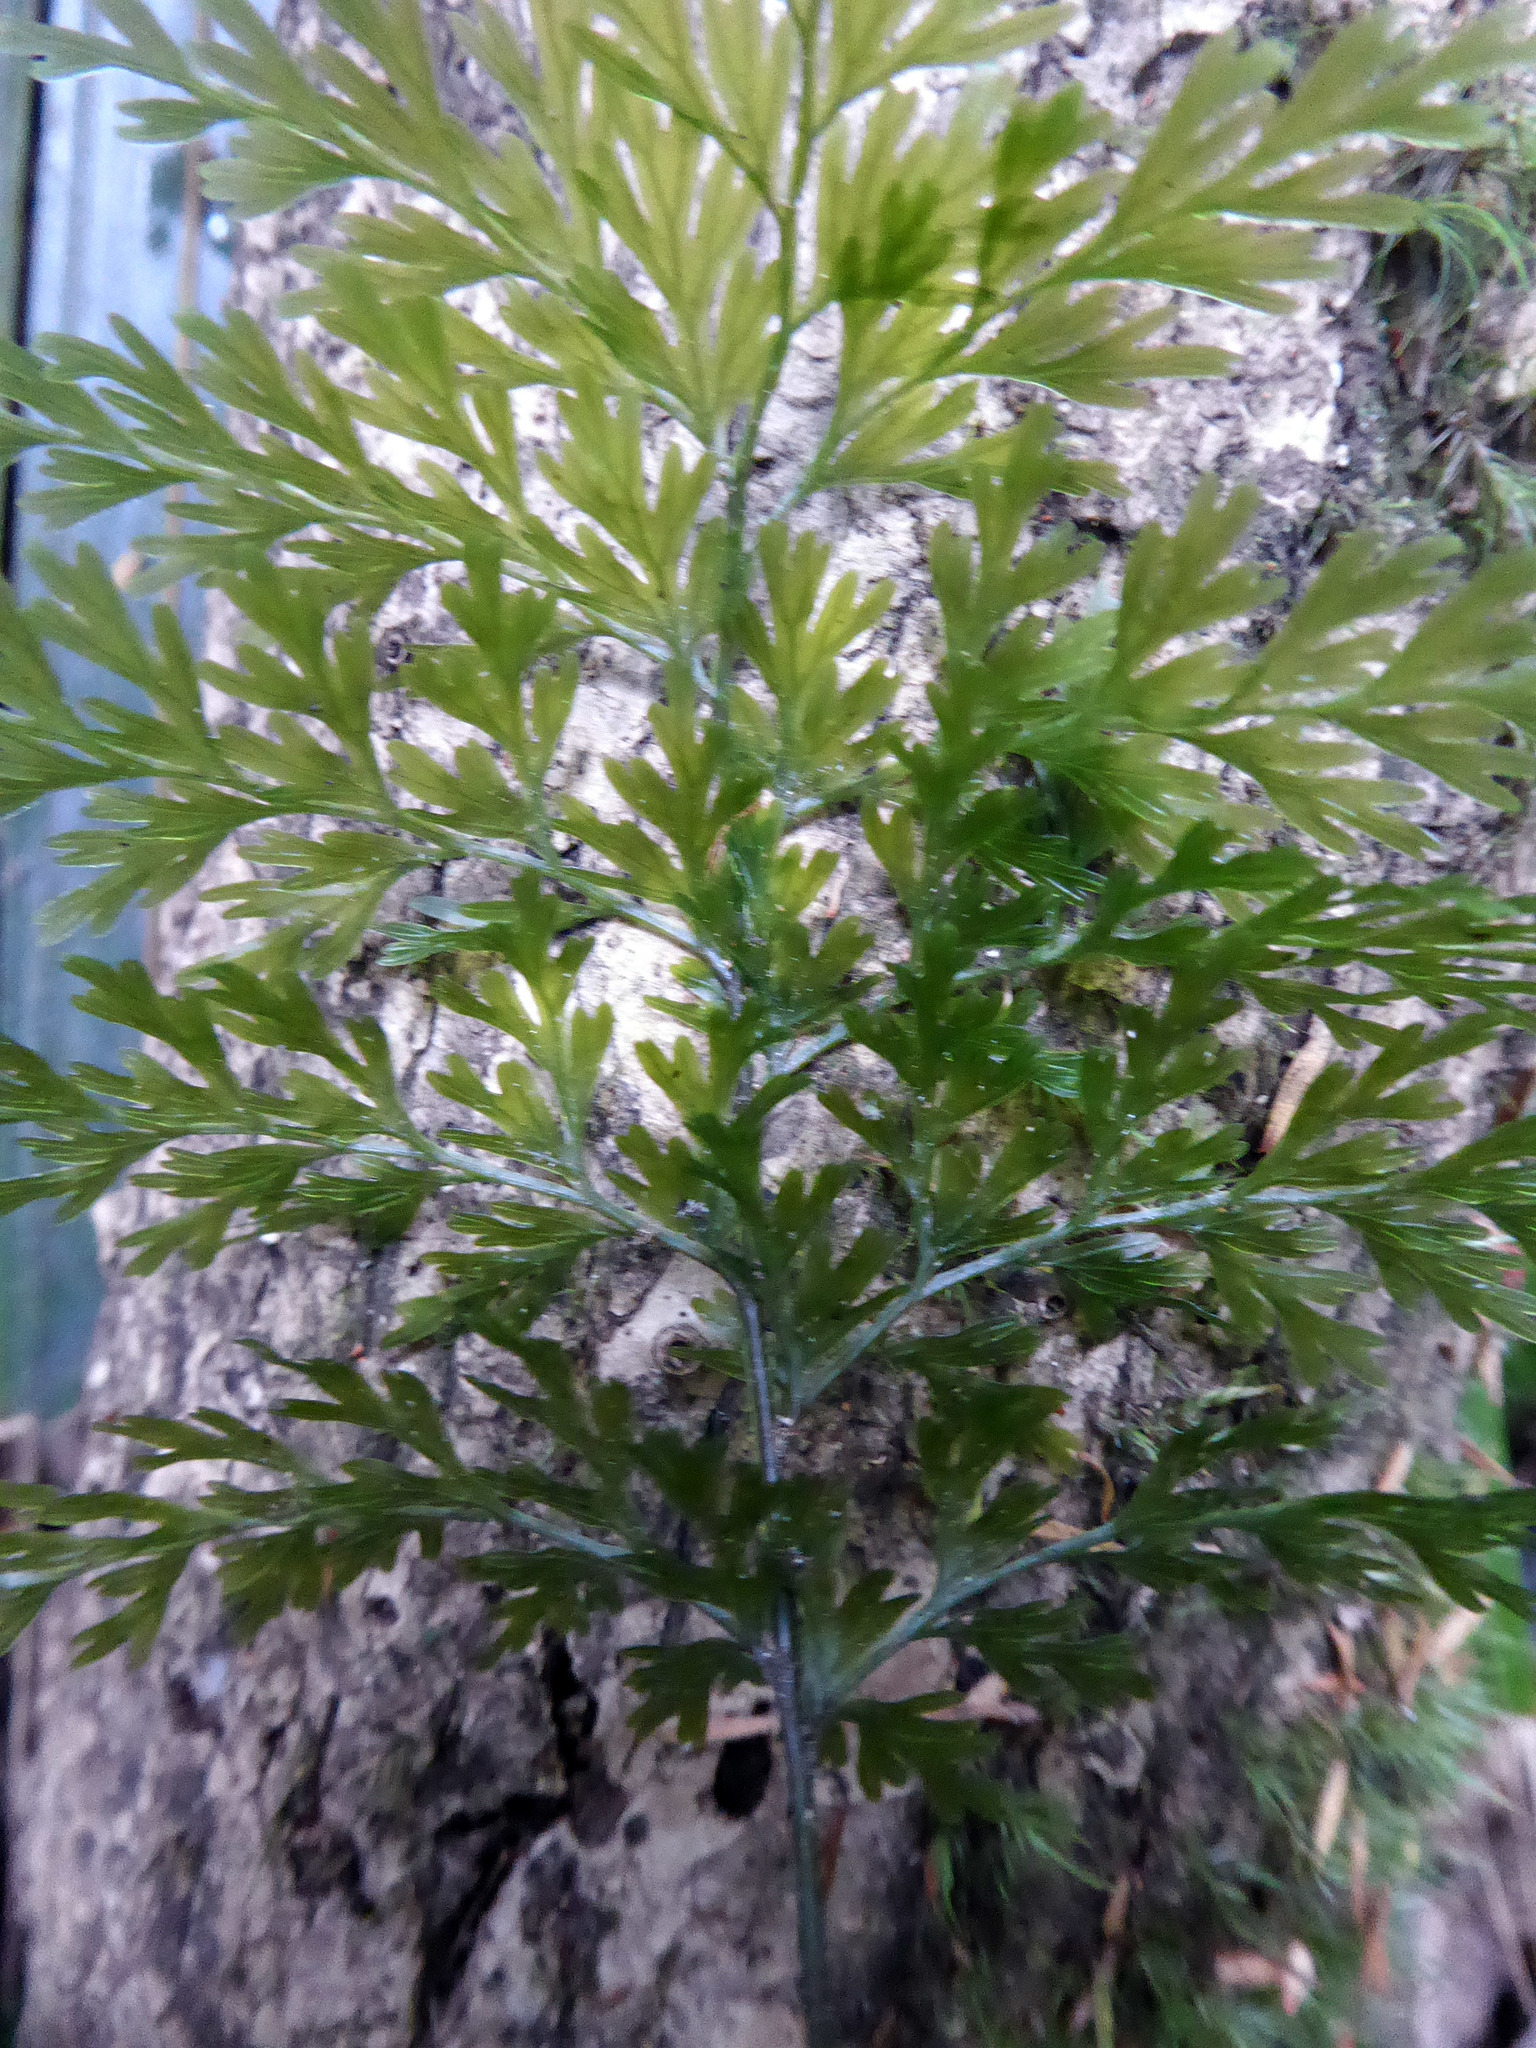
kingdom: Plantae
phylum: Tracheophyta
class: Polypodiopsida
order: Hymenophyllales
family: Hymenophyllaceae
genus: Hymenophyllum
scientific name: Hymenophyllum demissum
